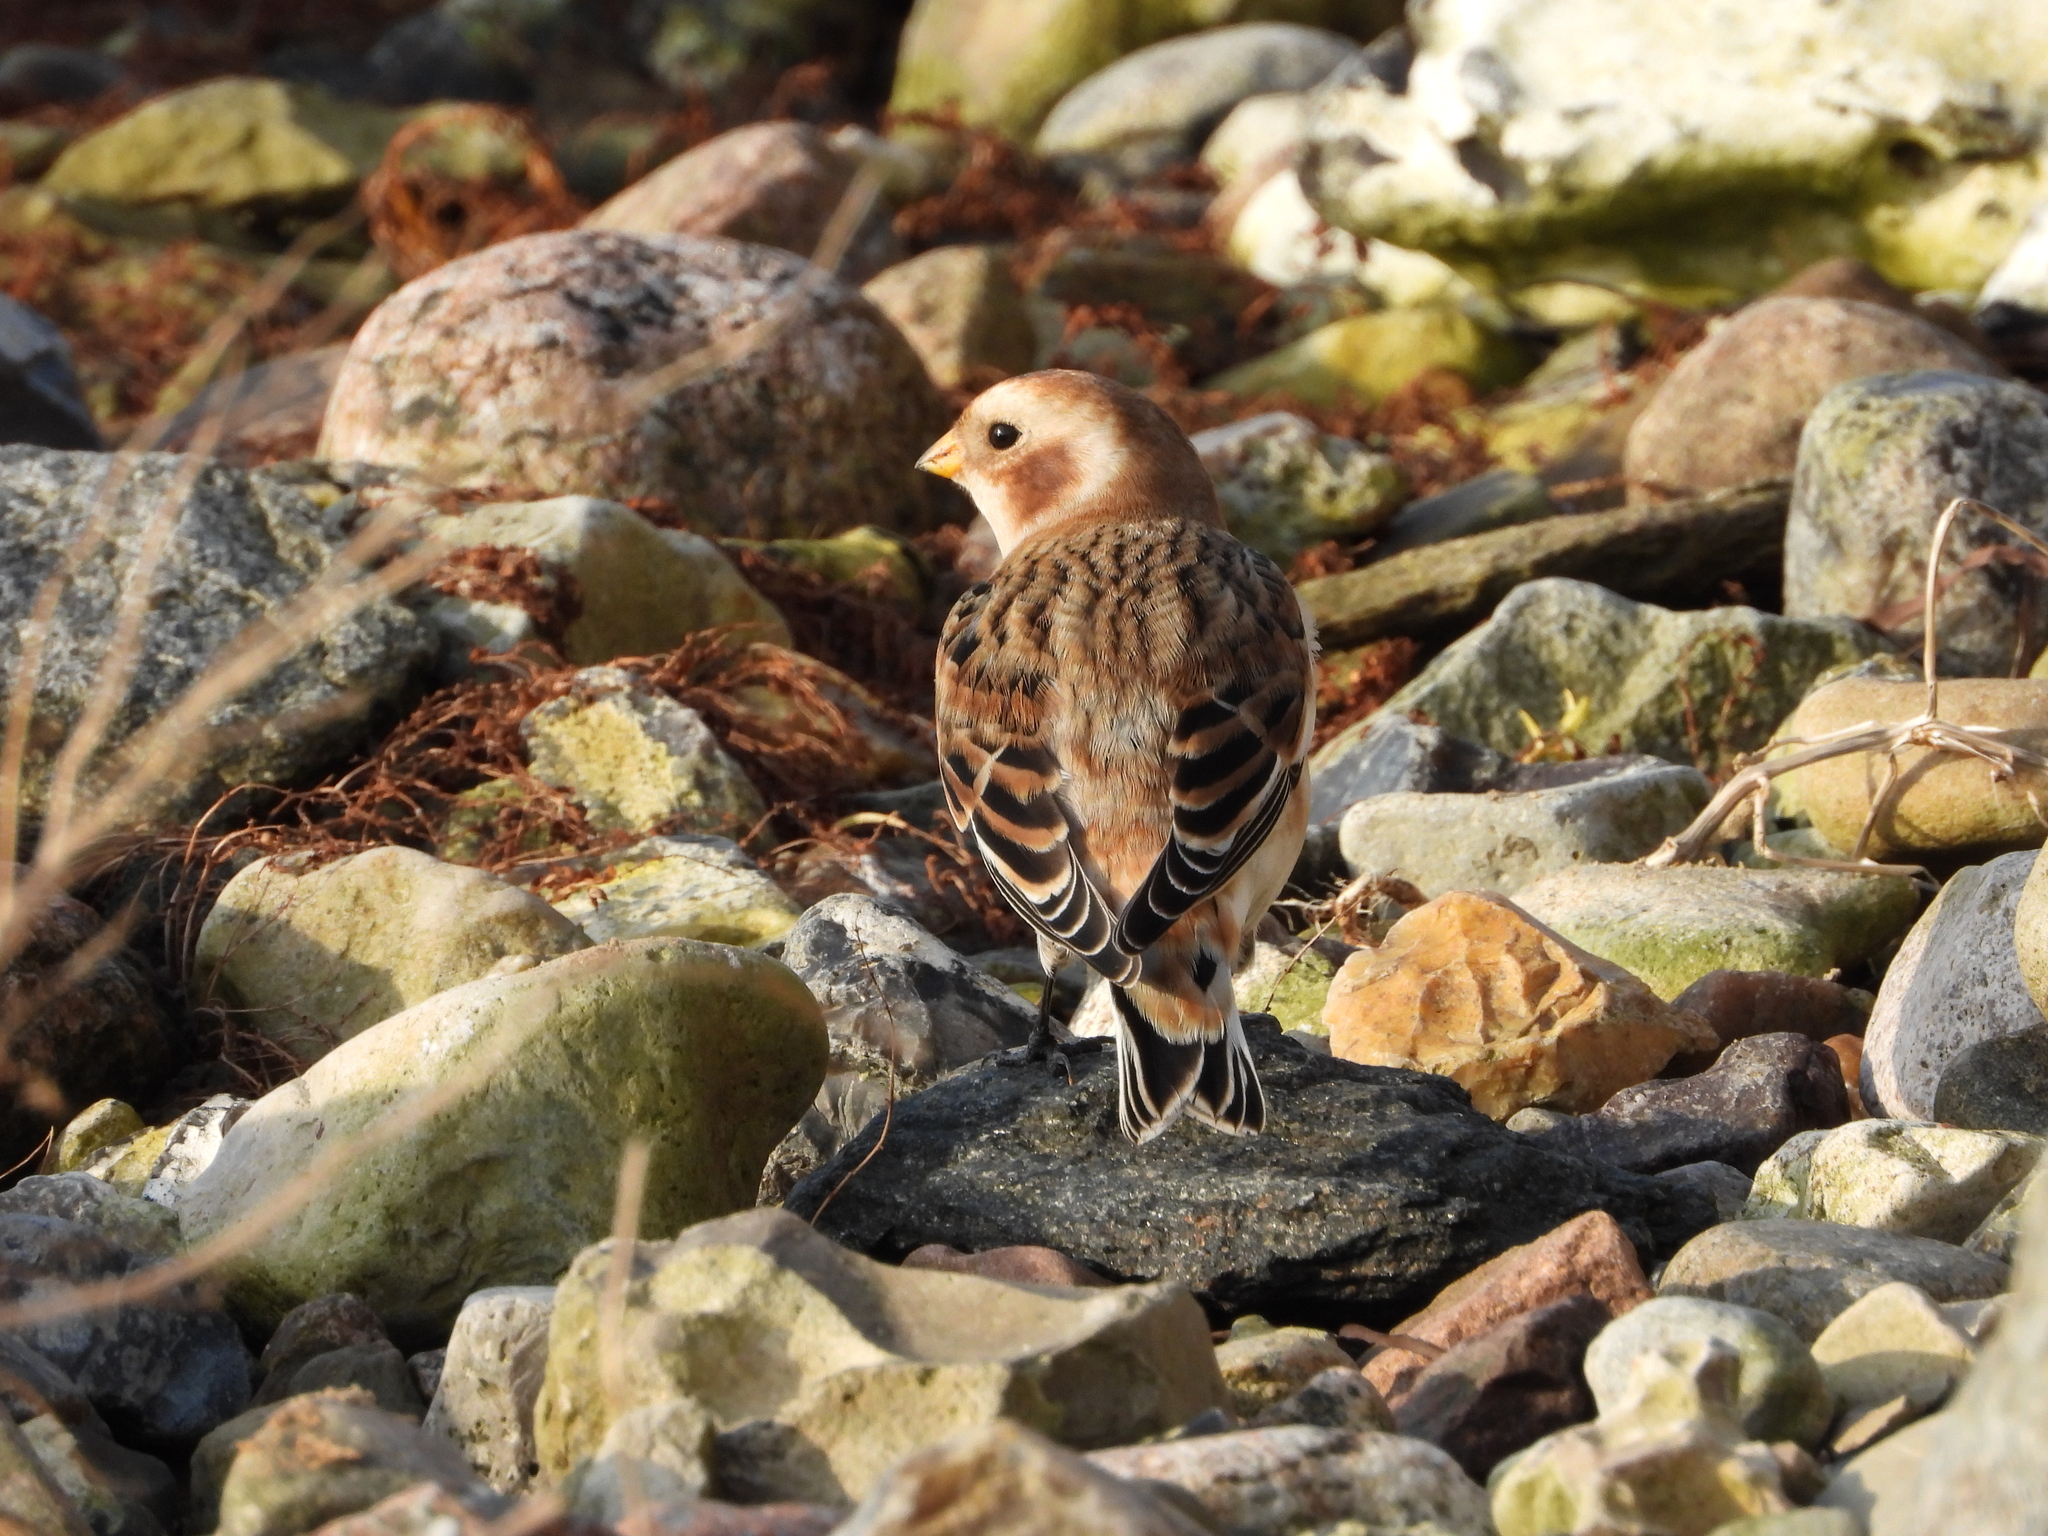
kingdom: Animalia
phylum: Chordata
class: Aves
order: Passeriformes
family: Calcariidae
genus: Plectrophenax
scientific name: Plectrophenax nivalis
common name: Snow bunting
